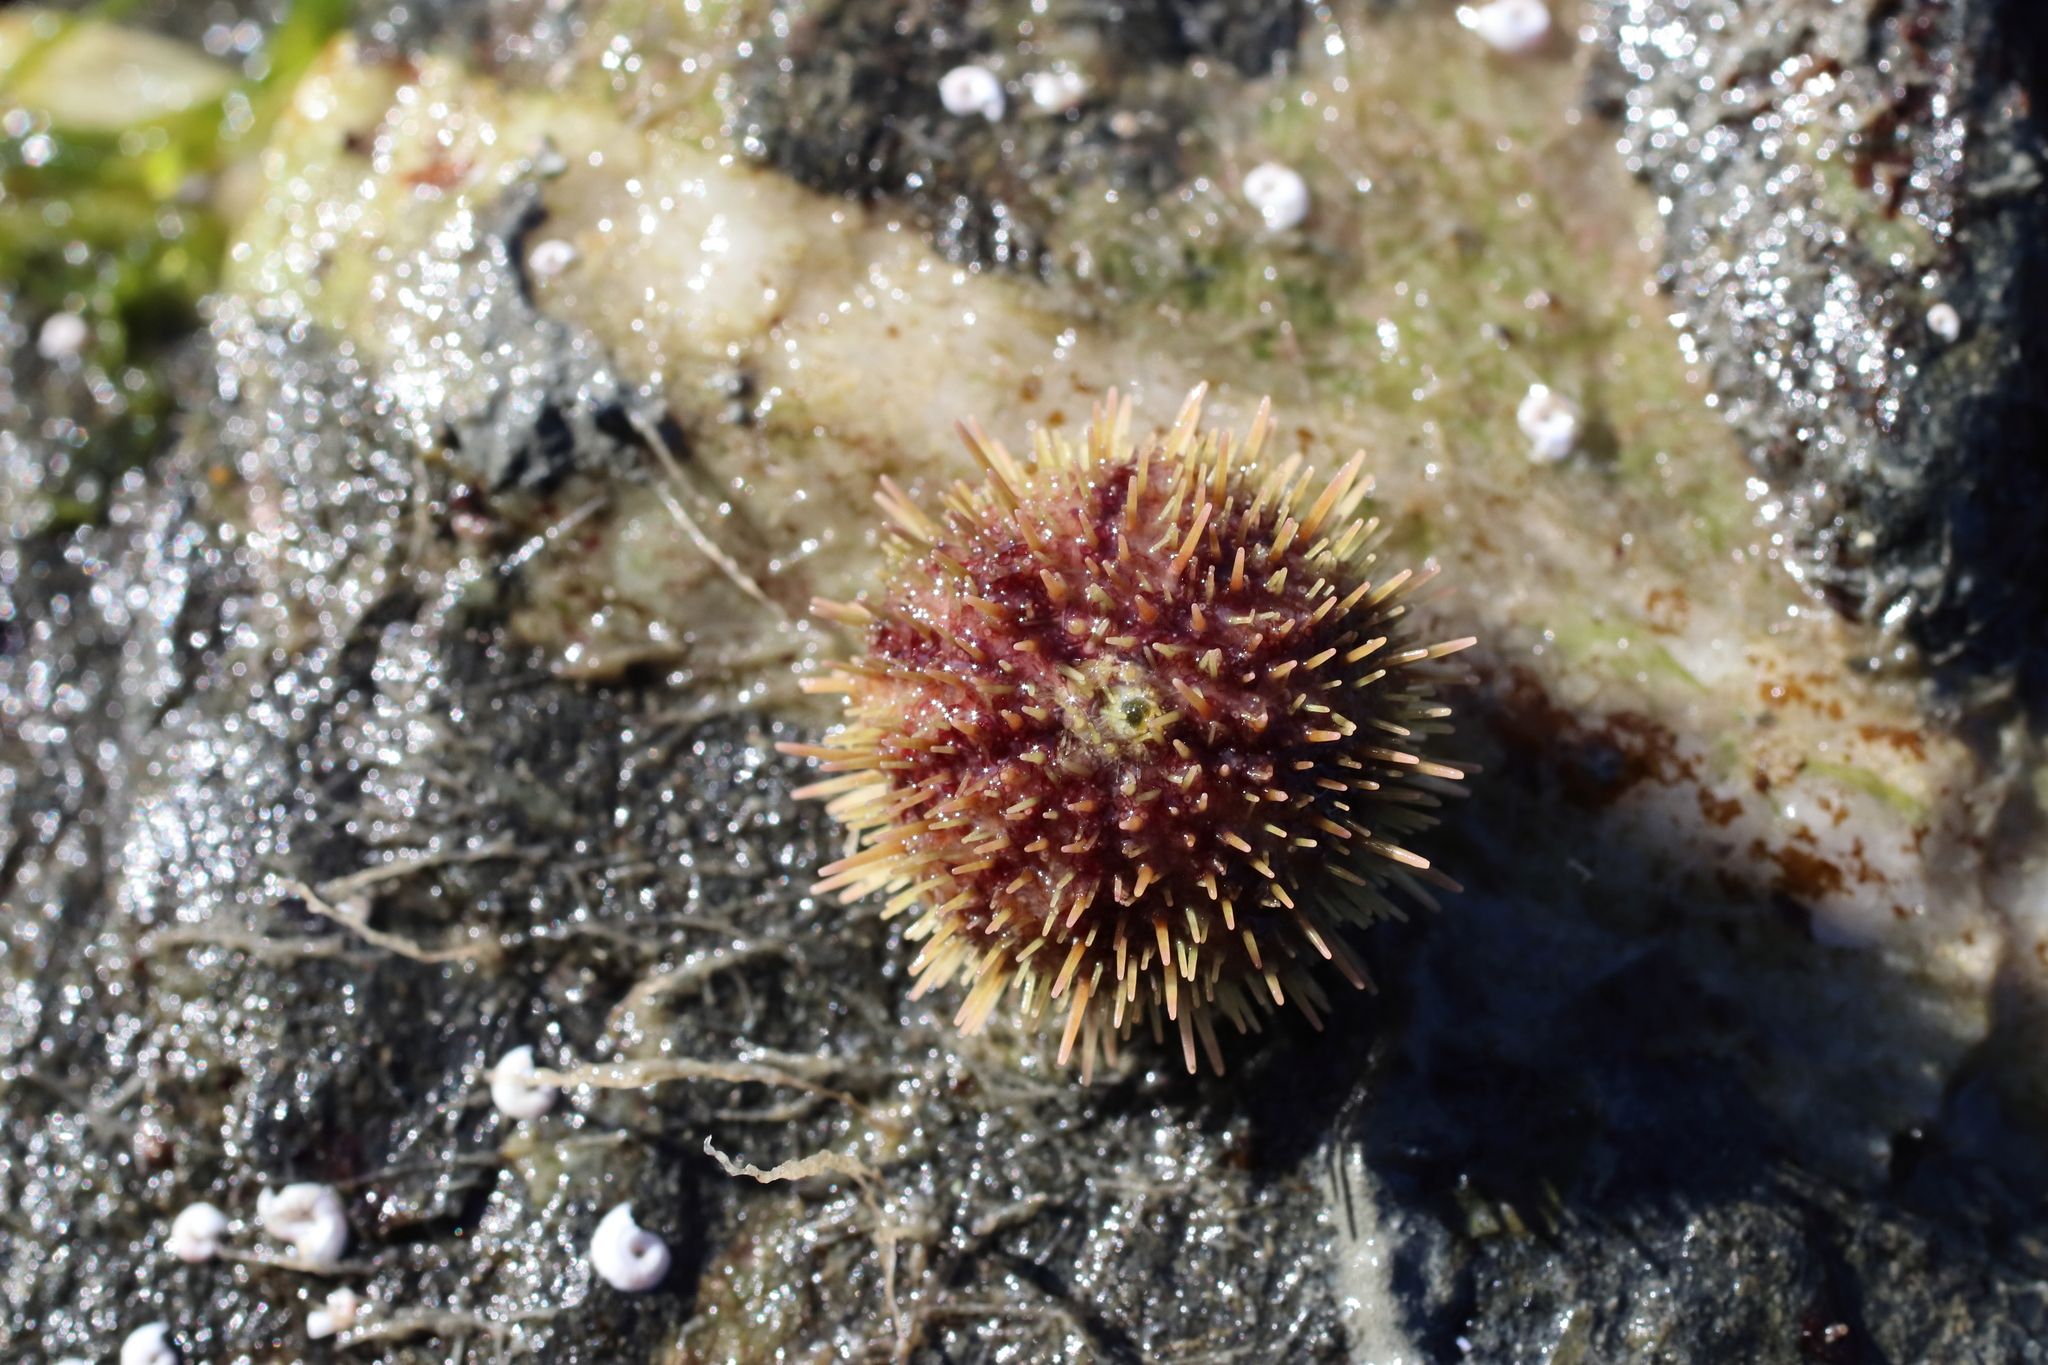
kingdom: Animalia
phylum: Echinodermata
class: Echinoidea
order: Camarodonta
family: Strongylocentrotidae
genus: Strongylocentrotus
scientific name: Strongylocentrotus droebachiensis
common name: Northern sea urchin
